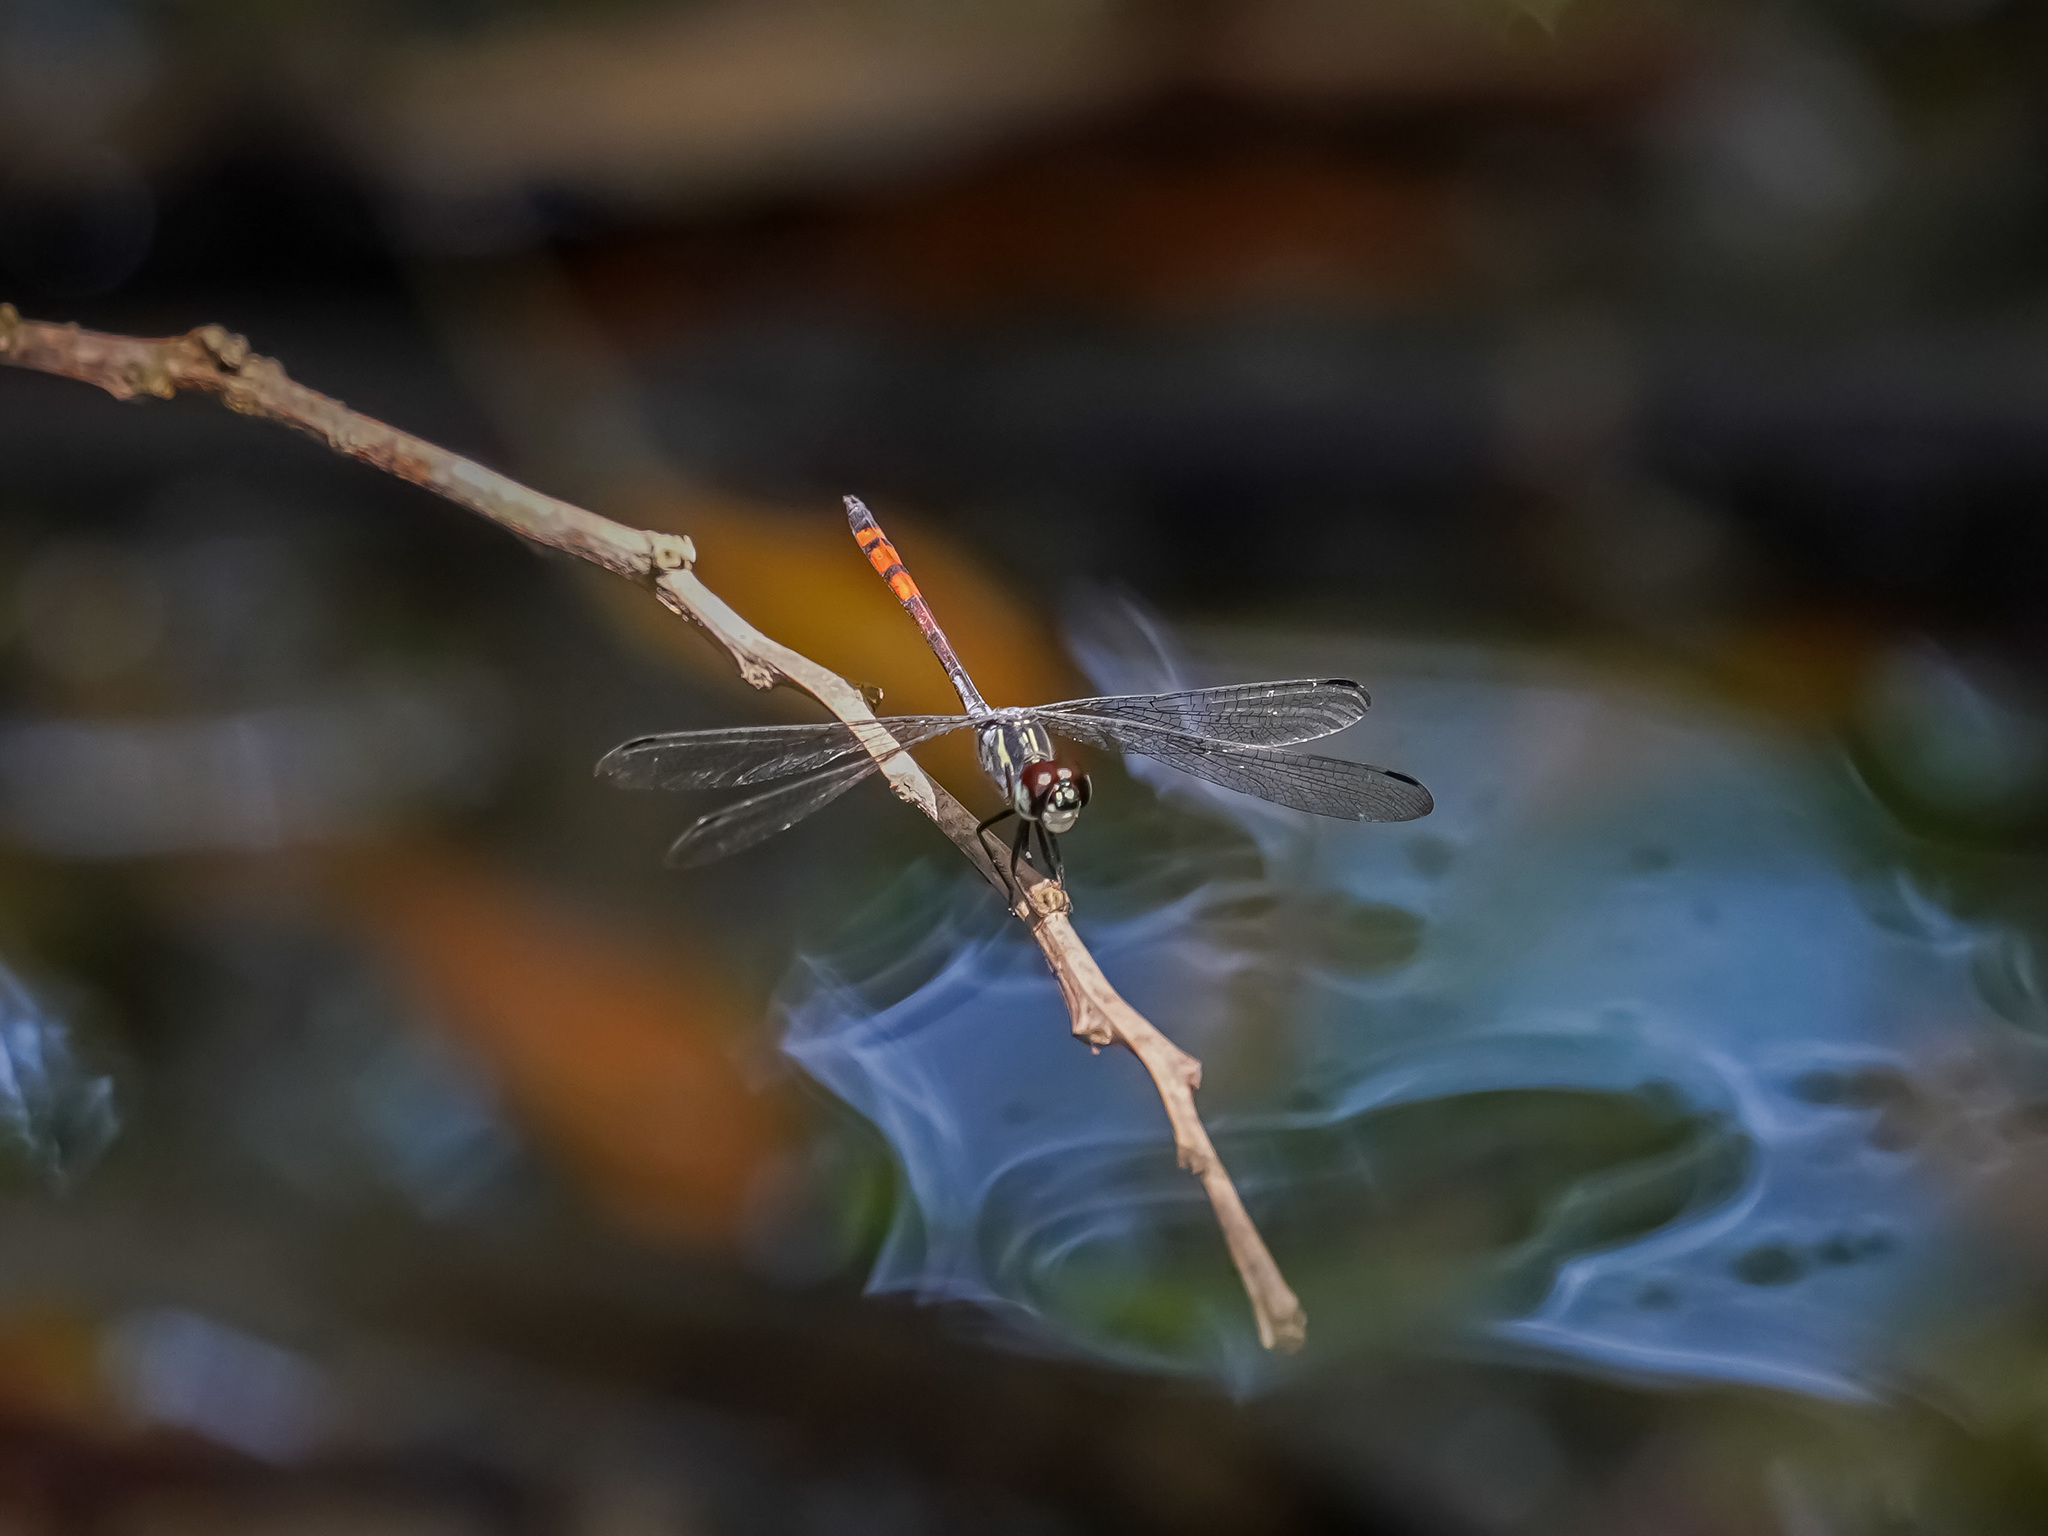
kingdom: Animalia
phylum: Arthropoda
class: Insecta
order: Odonata
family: Libellulidae
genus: Nesoxenia
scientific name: Nesoxenia lineata
